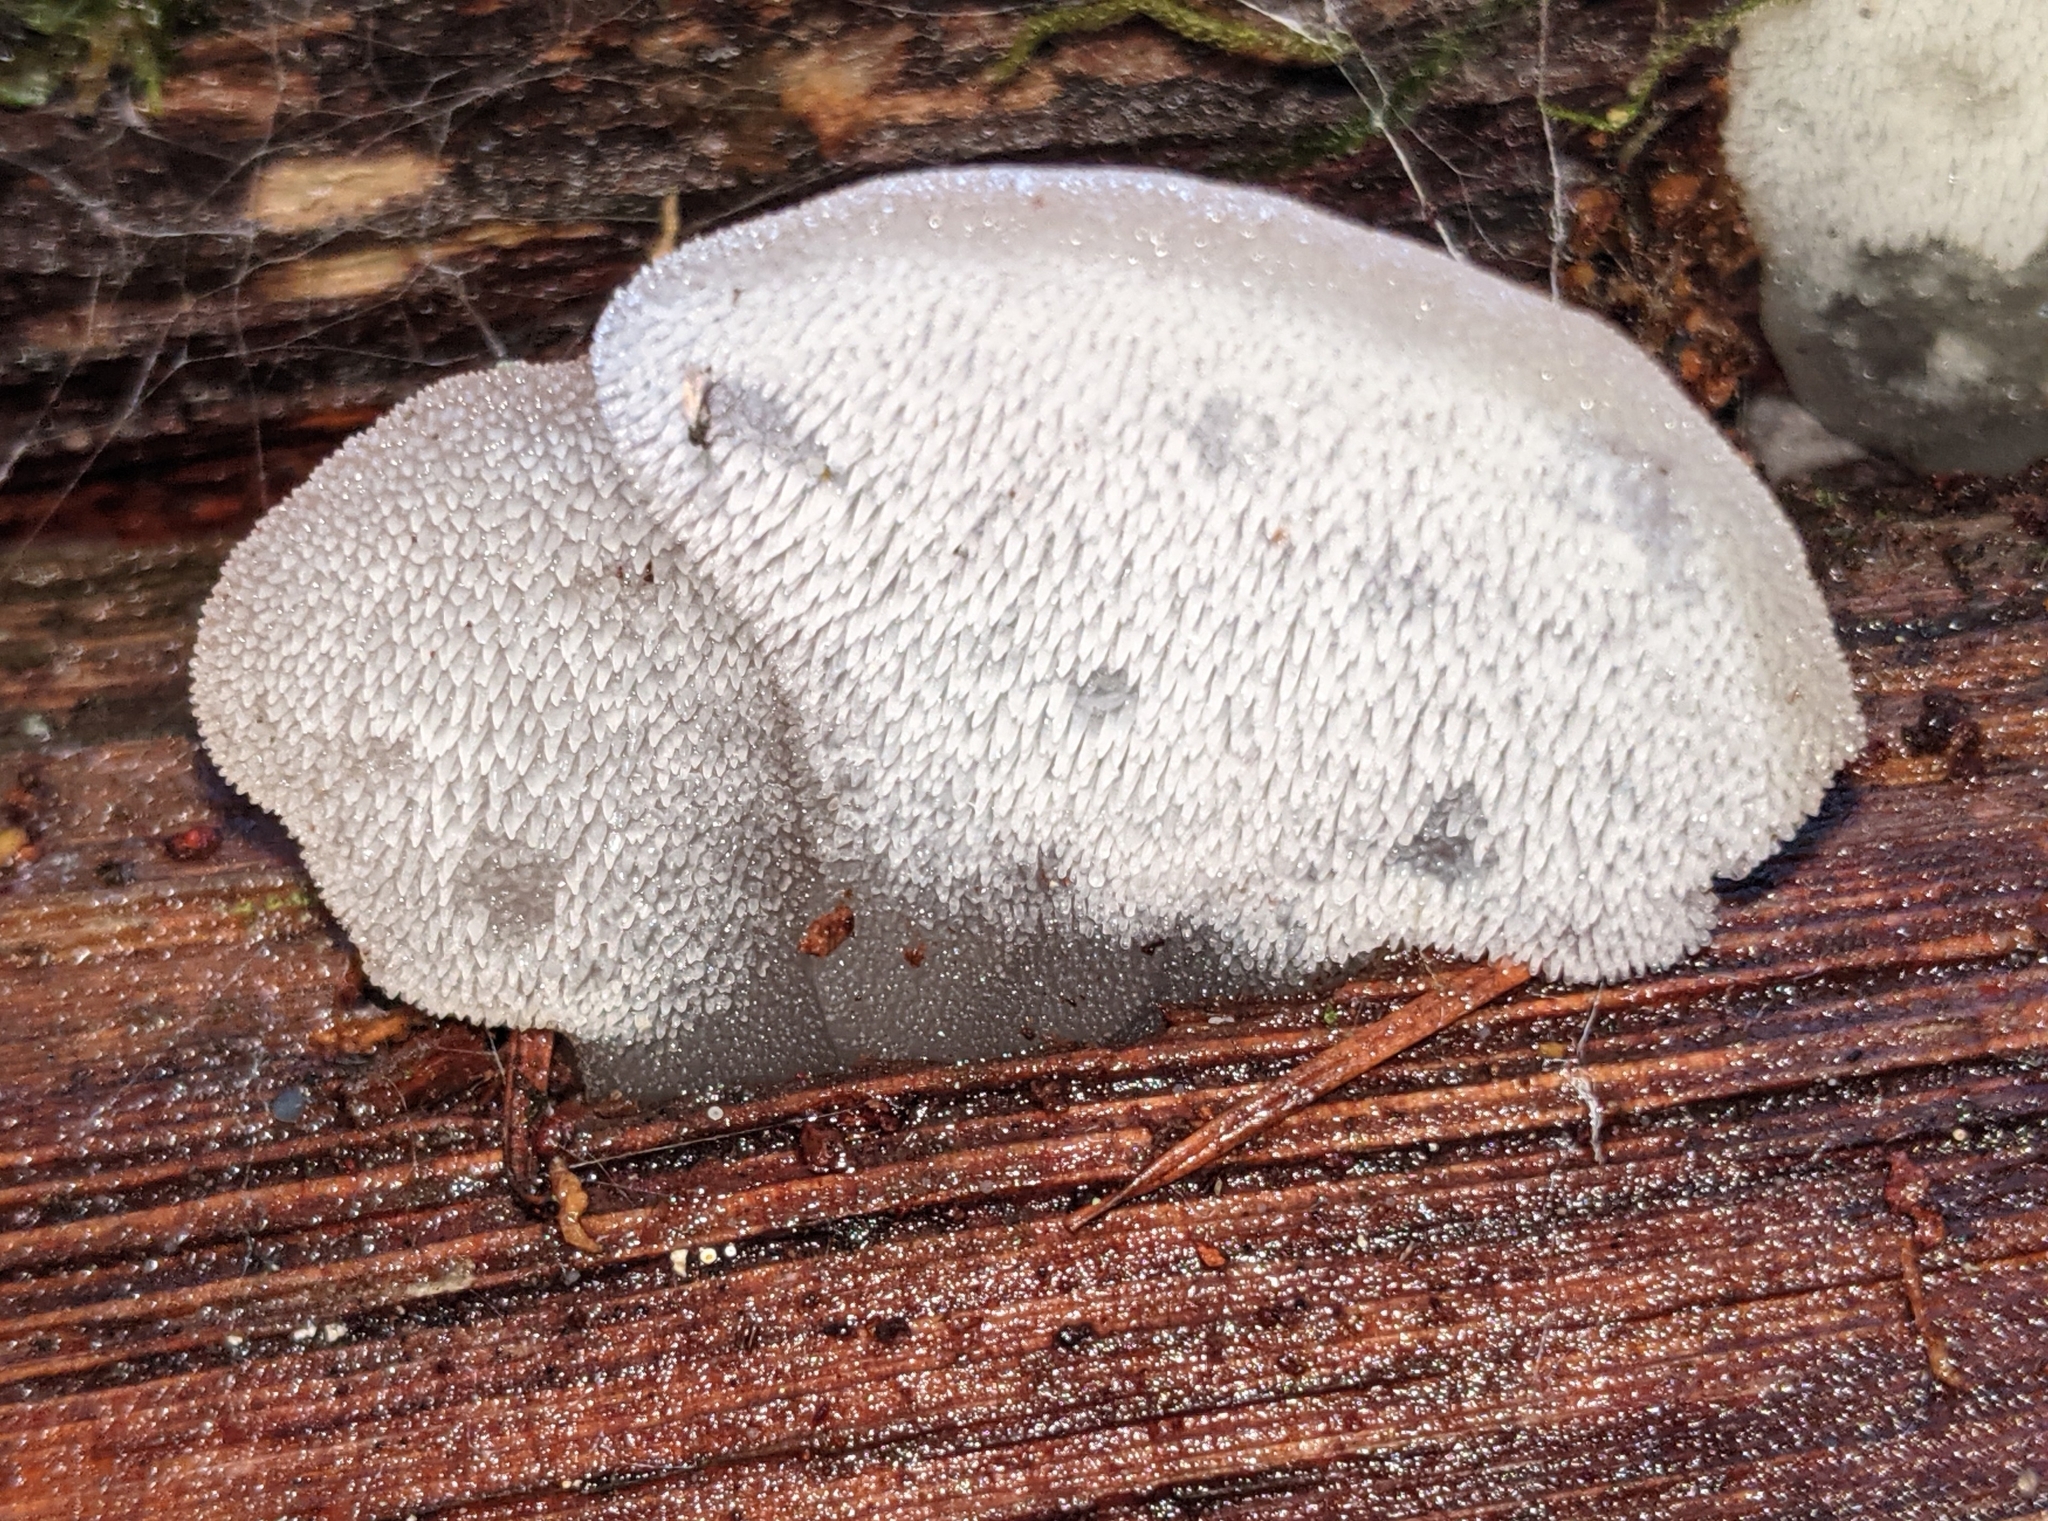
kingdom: Fungi
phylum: Basidiomycota
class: Agaricomycetes
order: Auriculariales
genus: Pseudohydnum
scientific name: Pseudohydnum gelatinosum
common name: Jelly tongue
